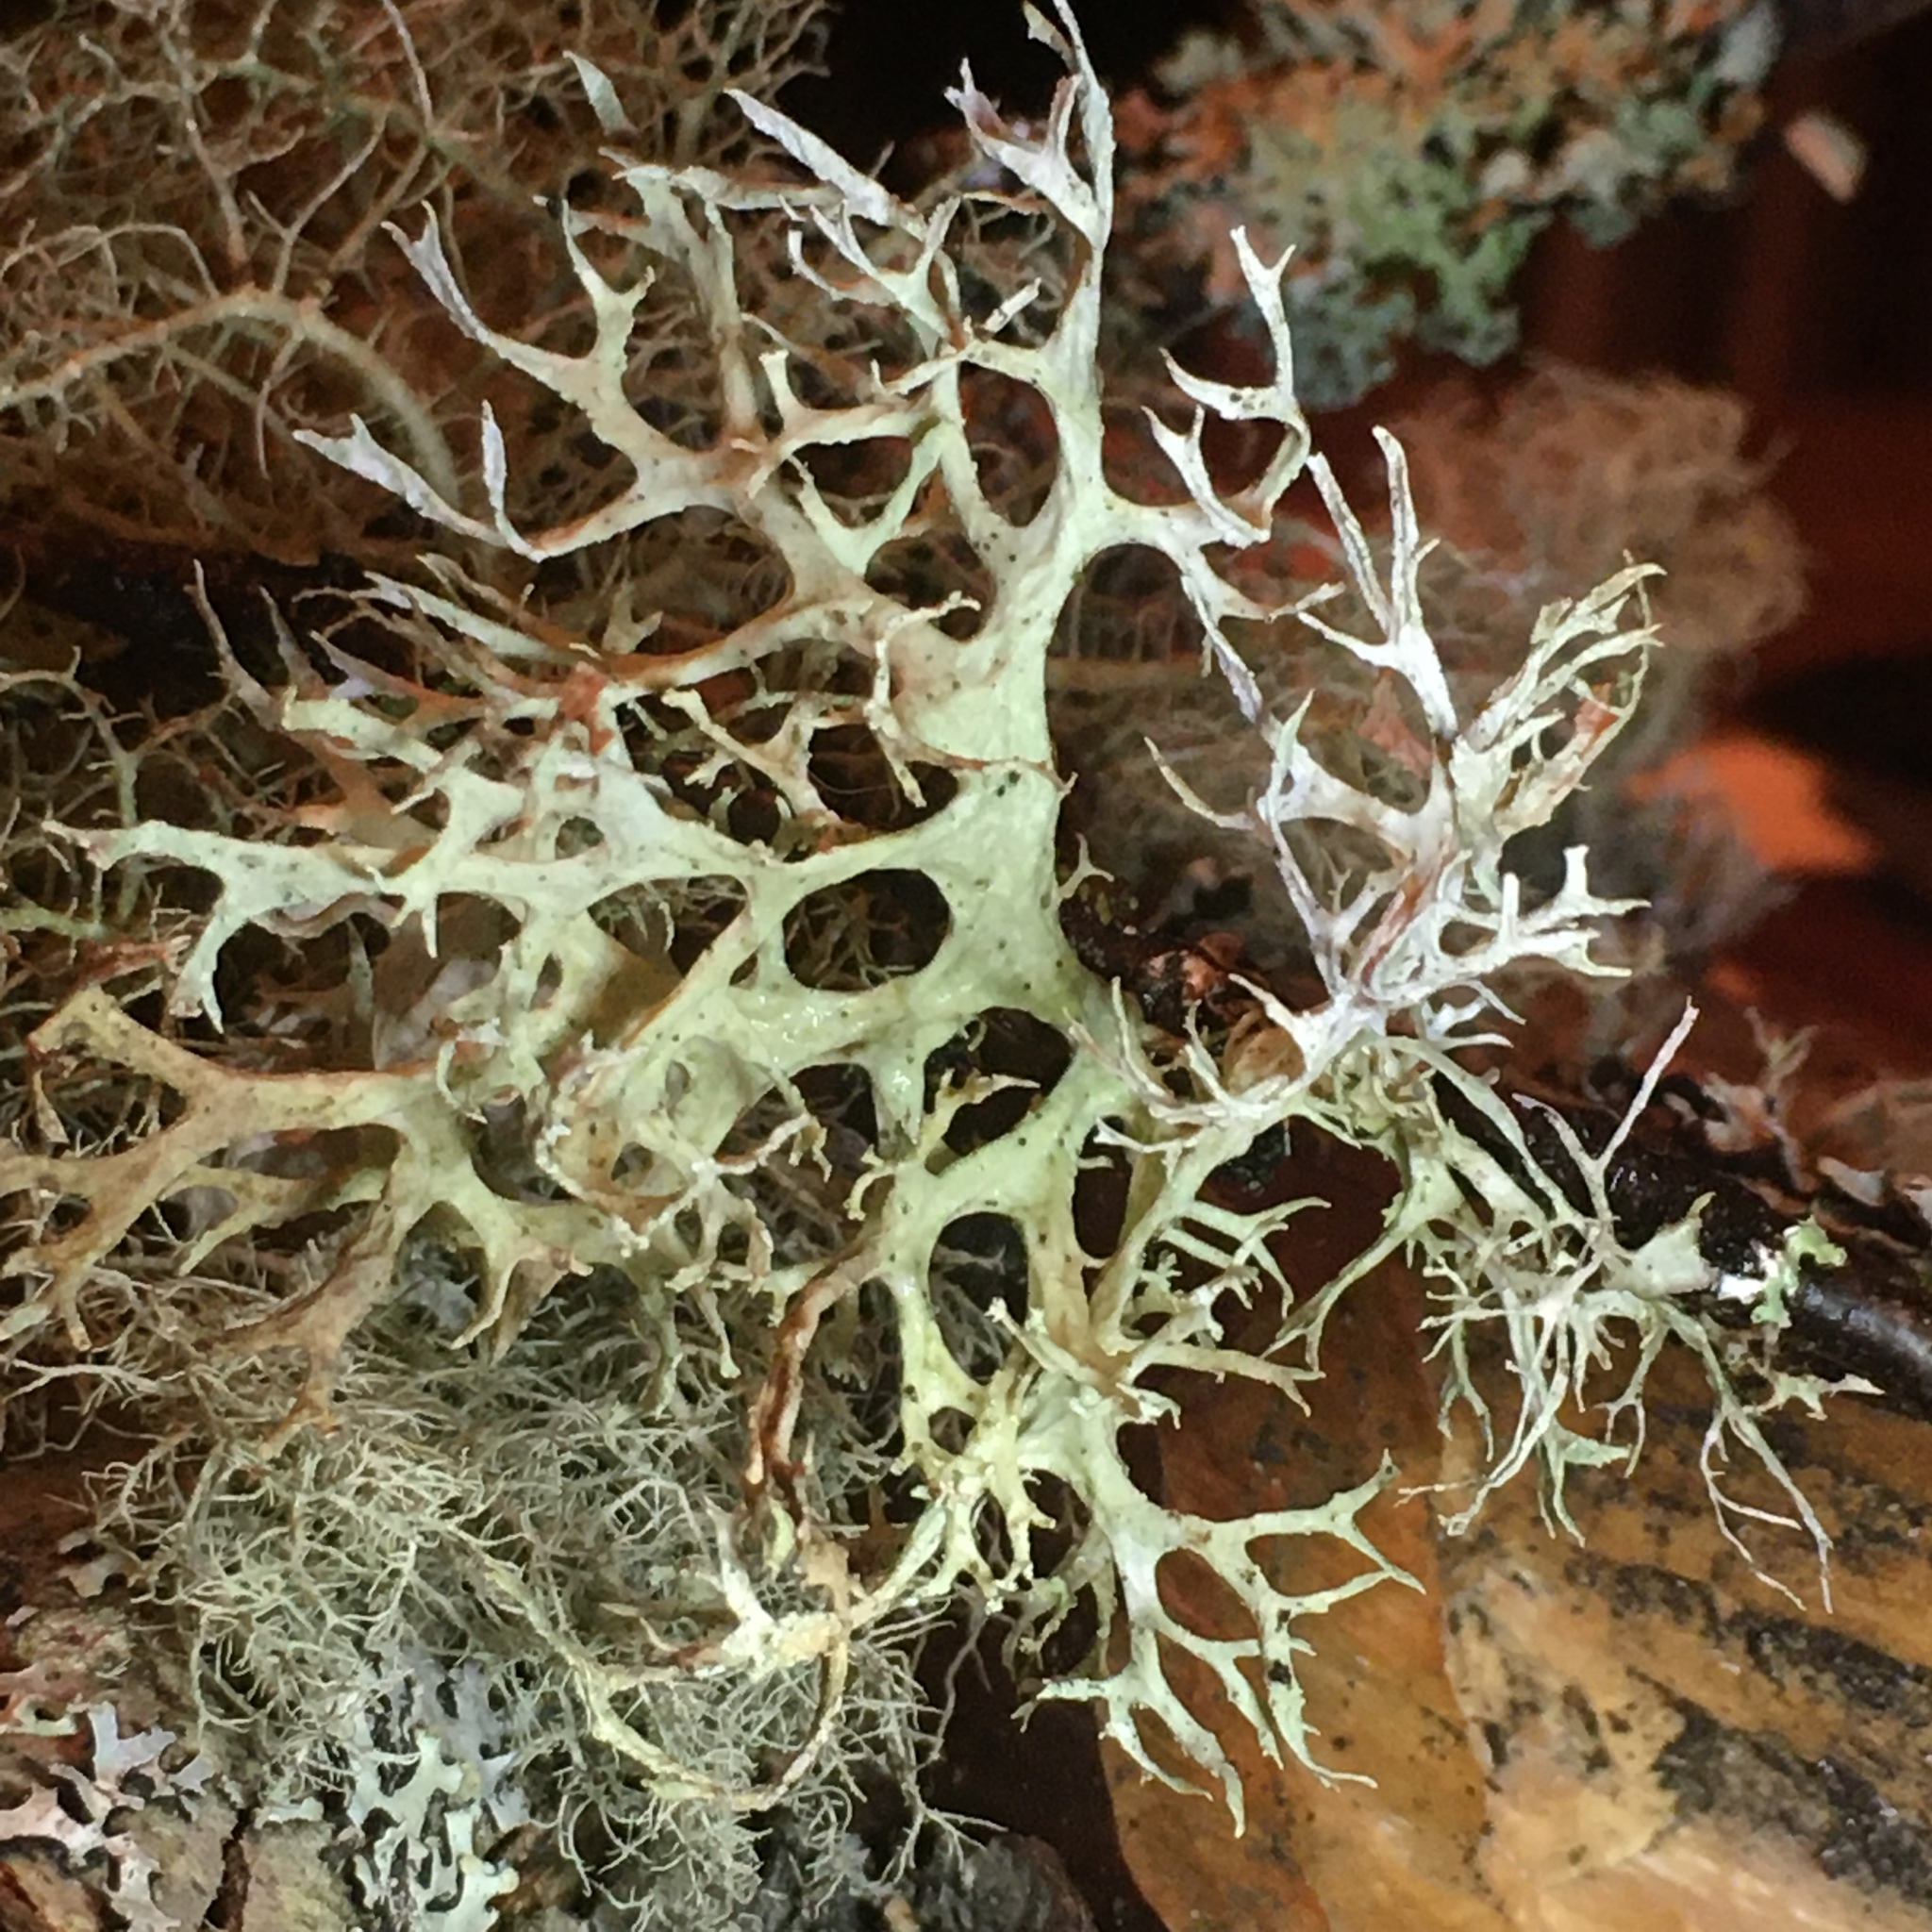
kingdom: Fungi
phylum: Ascomycota
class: Lecanoromycetes
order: Lecanorales
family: Parmeliaceae
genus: Evernia
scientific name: Evernia prunastri
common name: Oak moss
